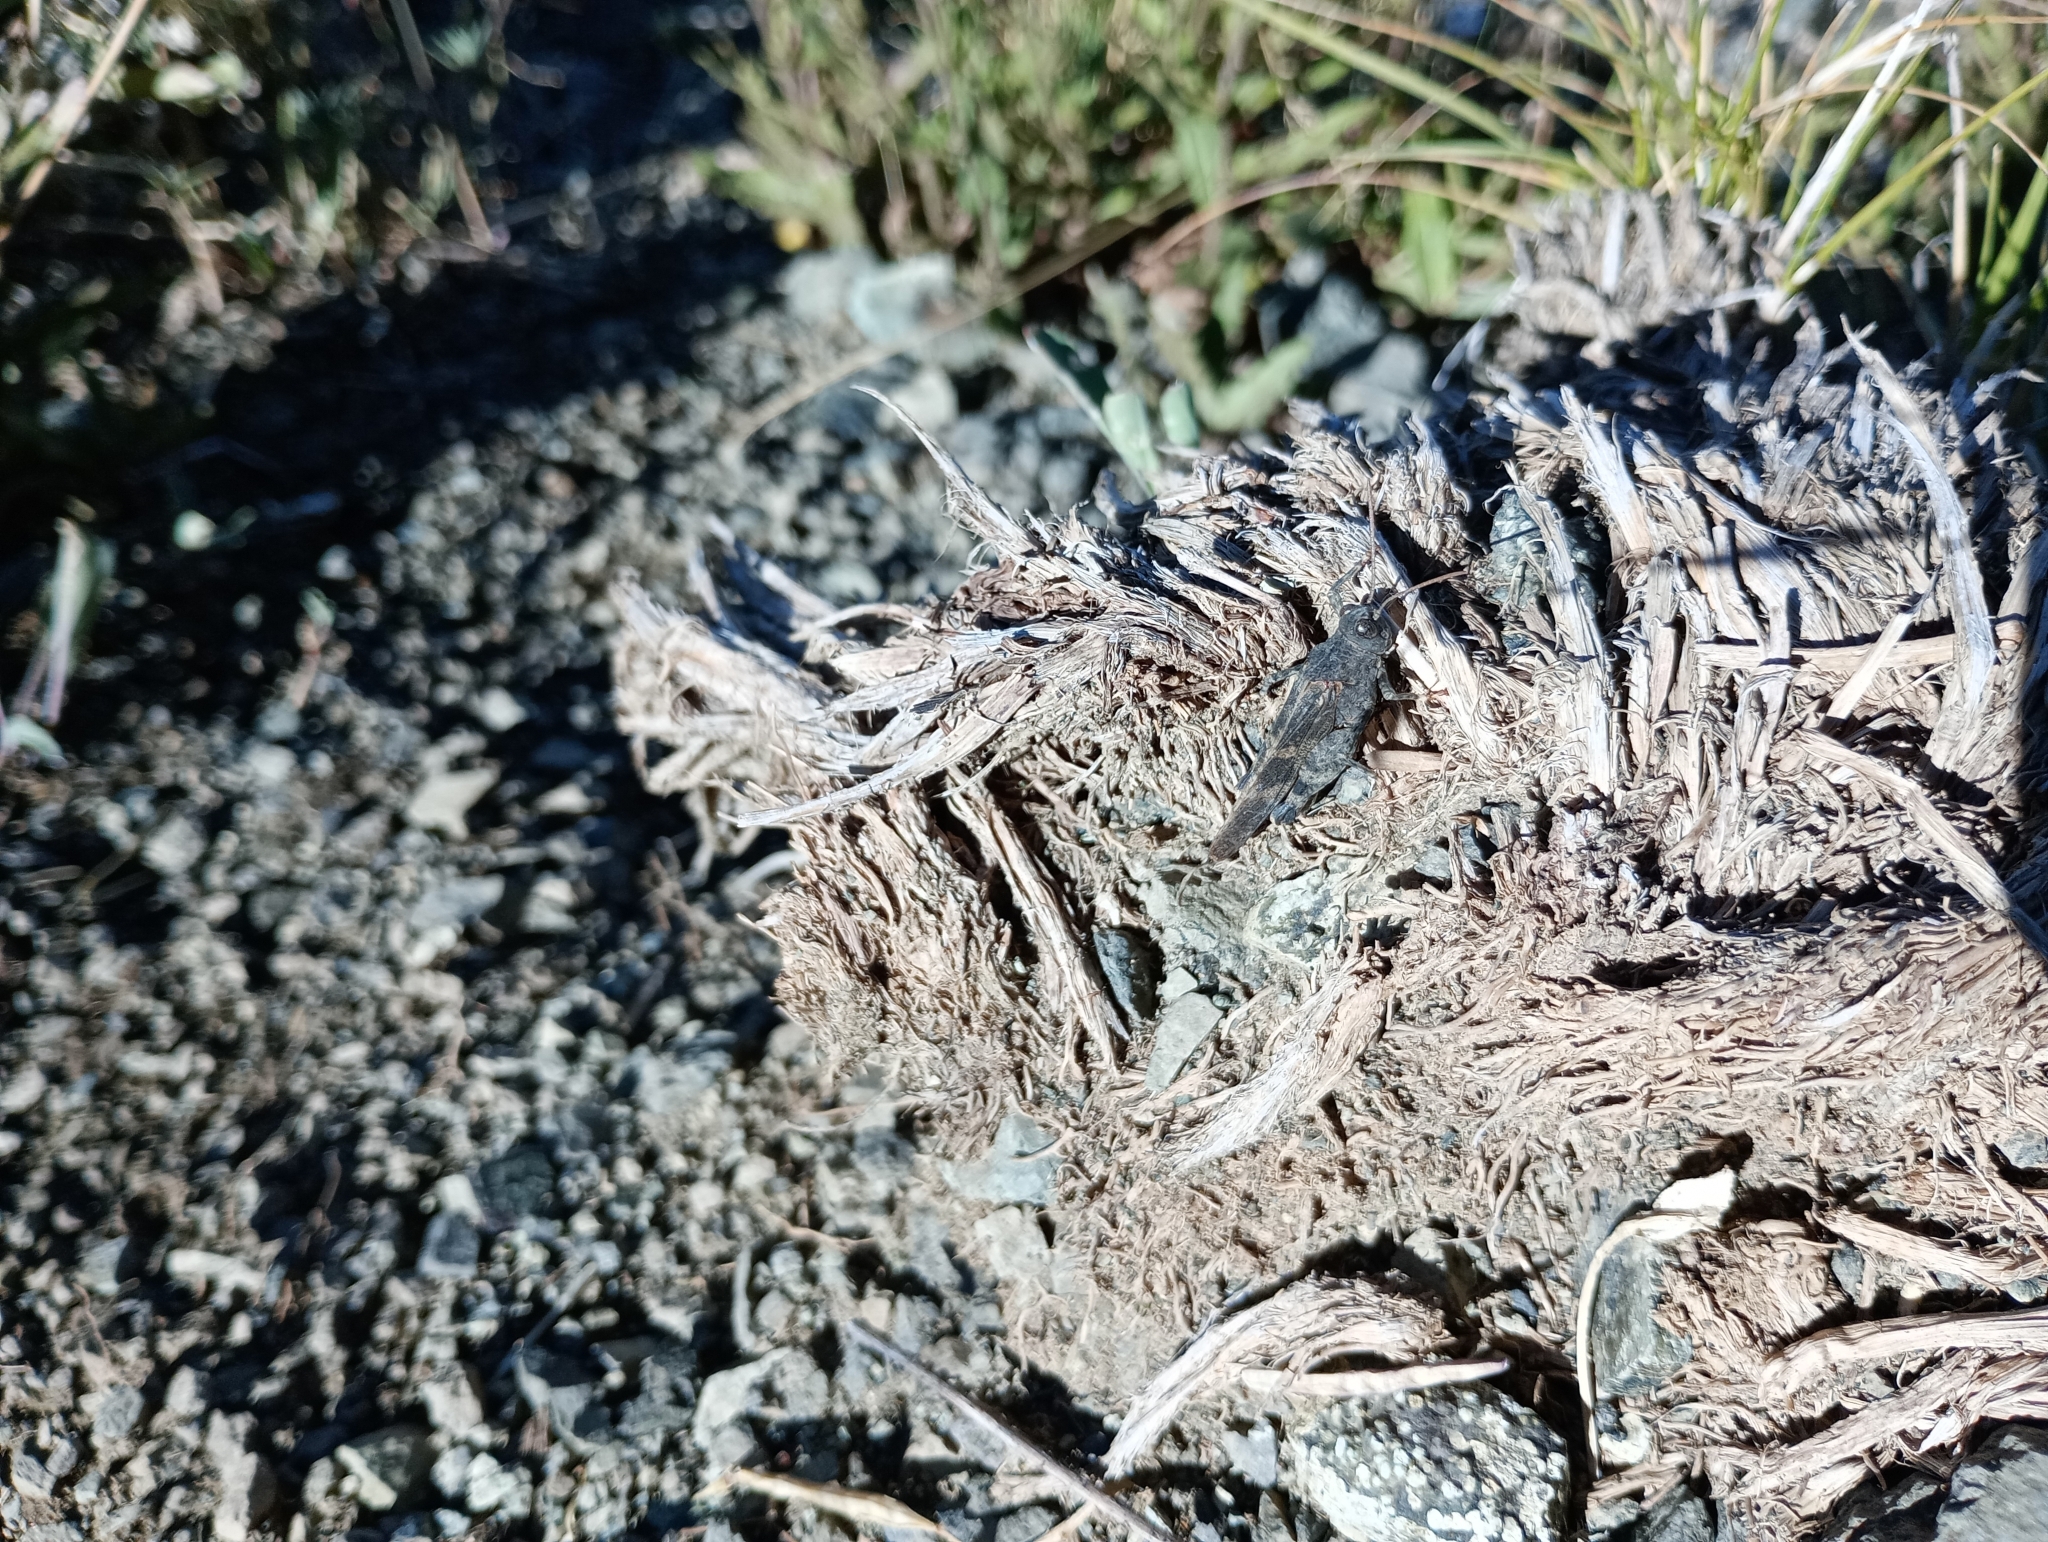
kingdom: Animalia
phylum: Arthropoda
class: Insecta
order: Orthoptera
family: Acrididae
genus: Oedipoda
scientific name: Oedipoda germanica
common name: Red band-winged grasshopper
